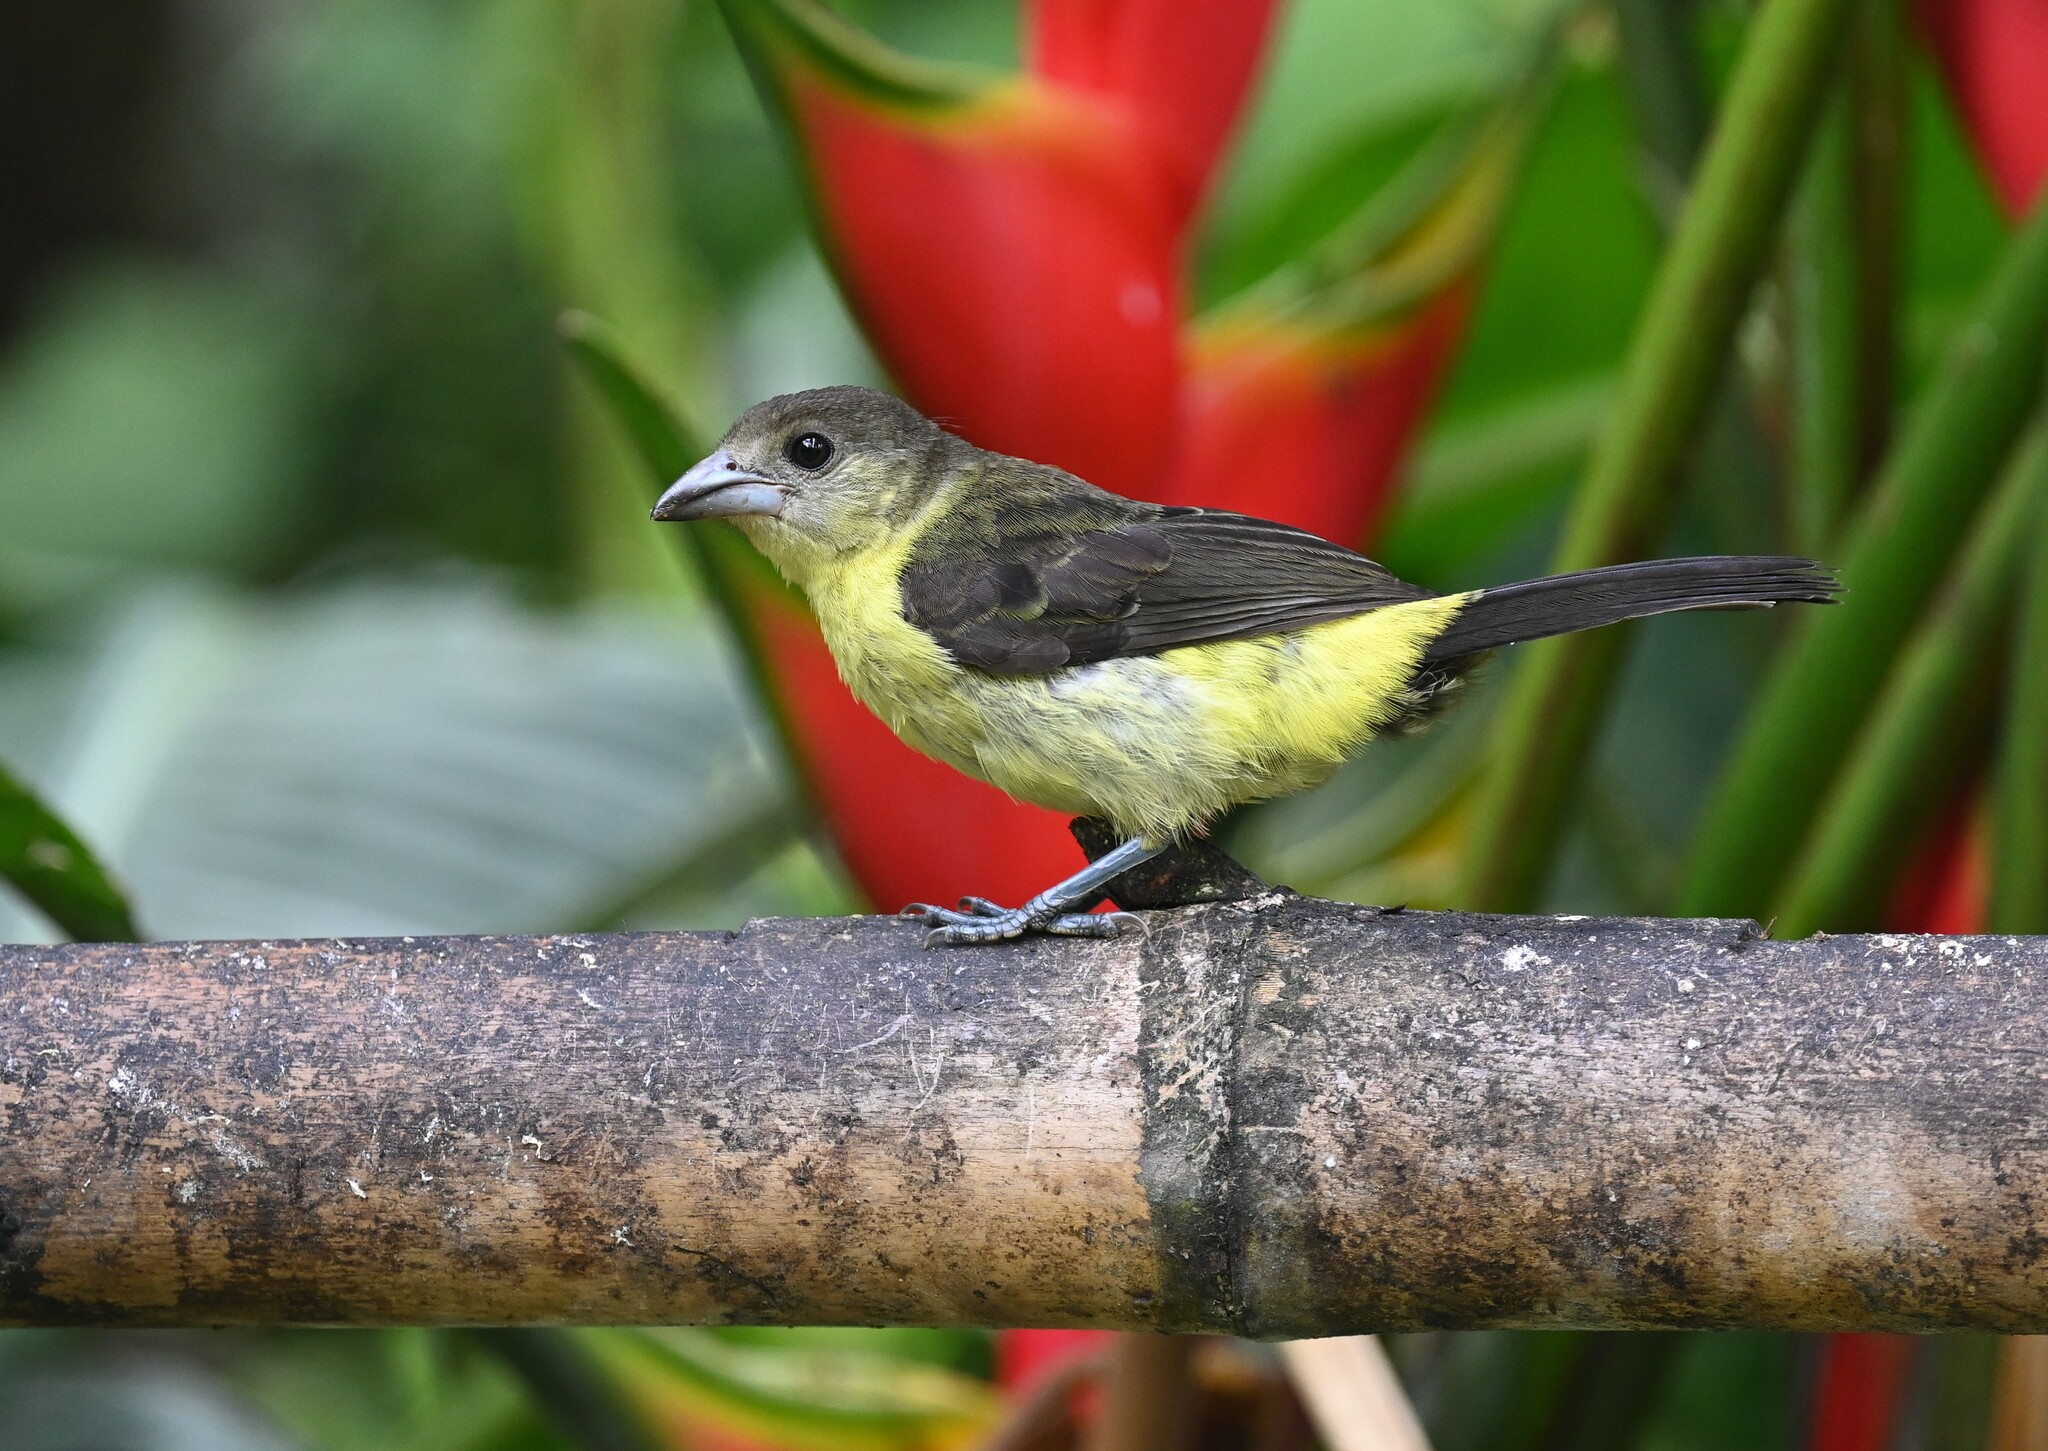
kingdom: Animalia
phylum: Chordata
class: Aves
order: Passeriformes
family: Thraupidae
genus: Ramphocelus
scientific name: Ramphocelus flammigerus
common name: Flame-rumped tanager
